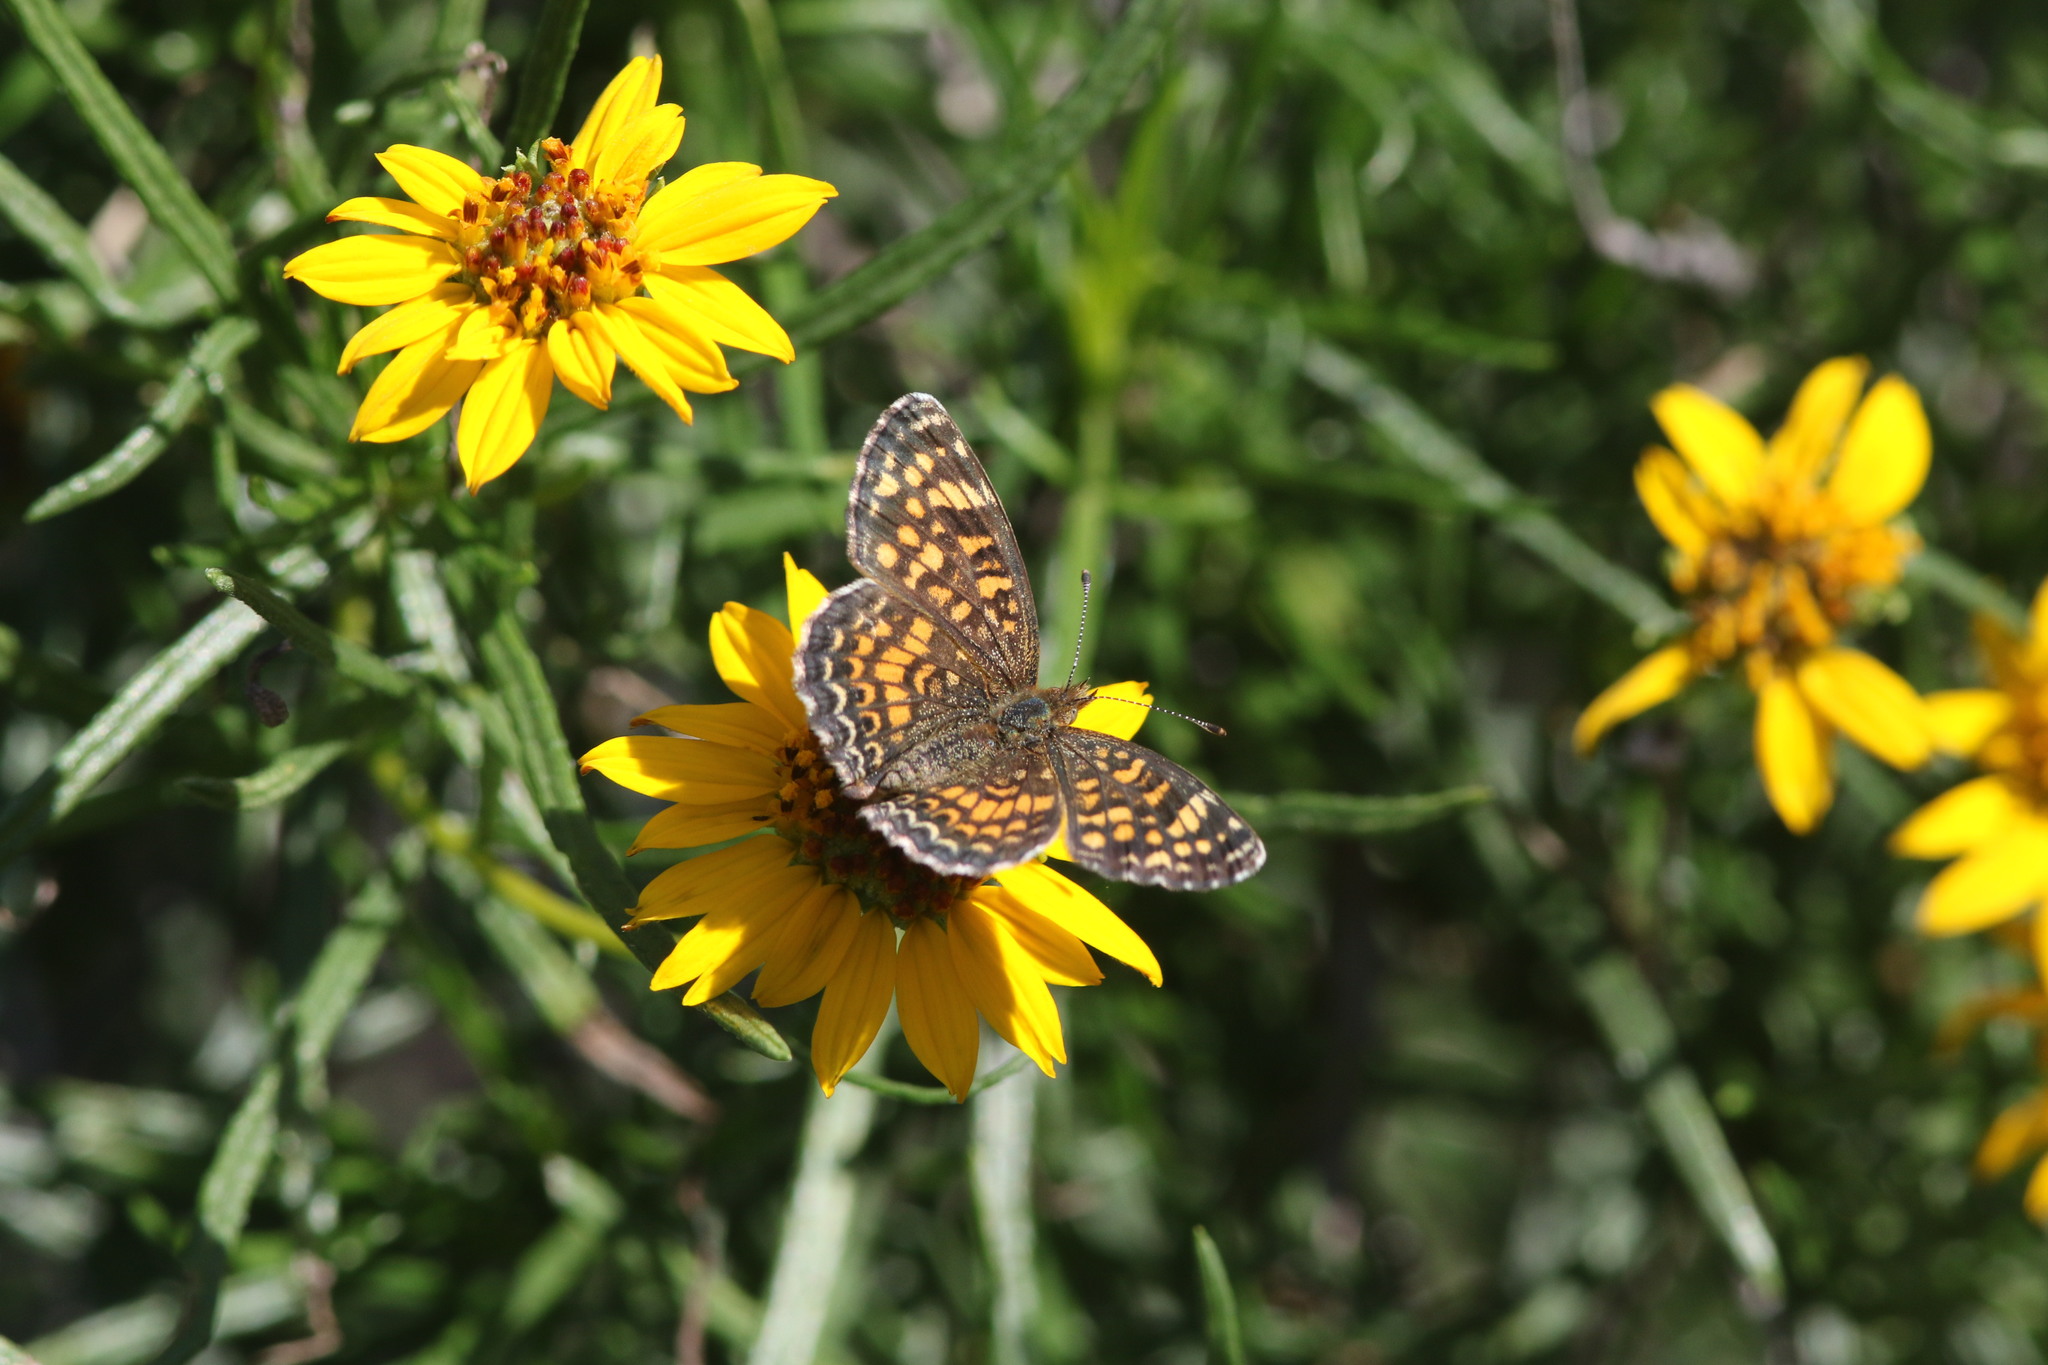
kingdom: Animalia
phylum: Arthropoda
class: Insecta
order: Lepidoptera
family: Nymphalidae
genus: Phyciodes
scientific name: Phyciodes vesta
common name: Vesta crescent
